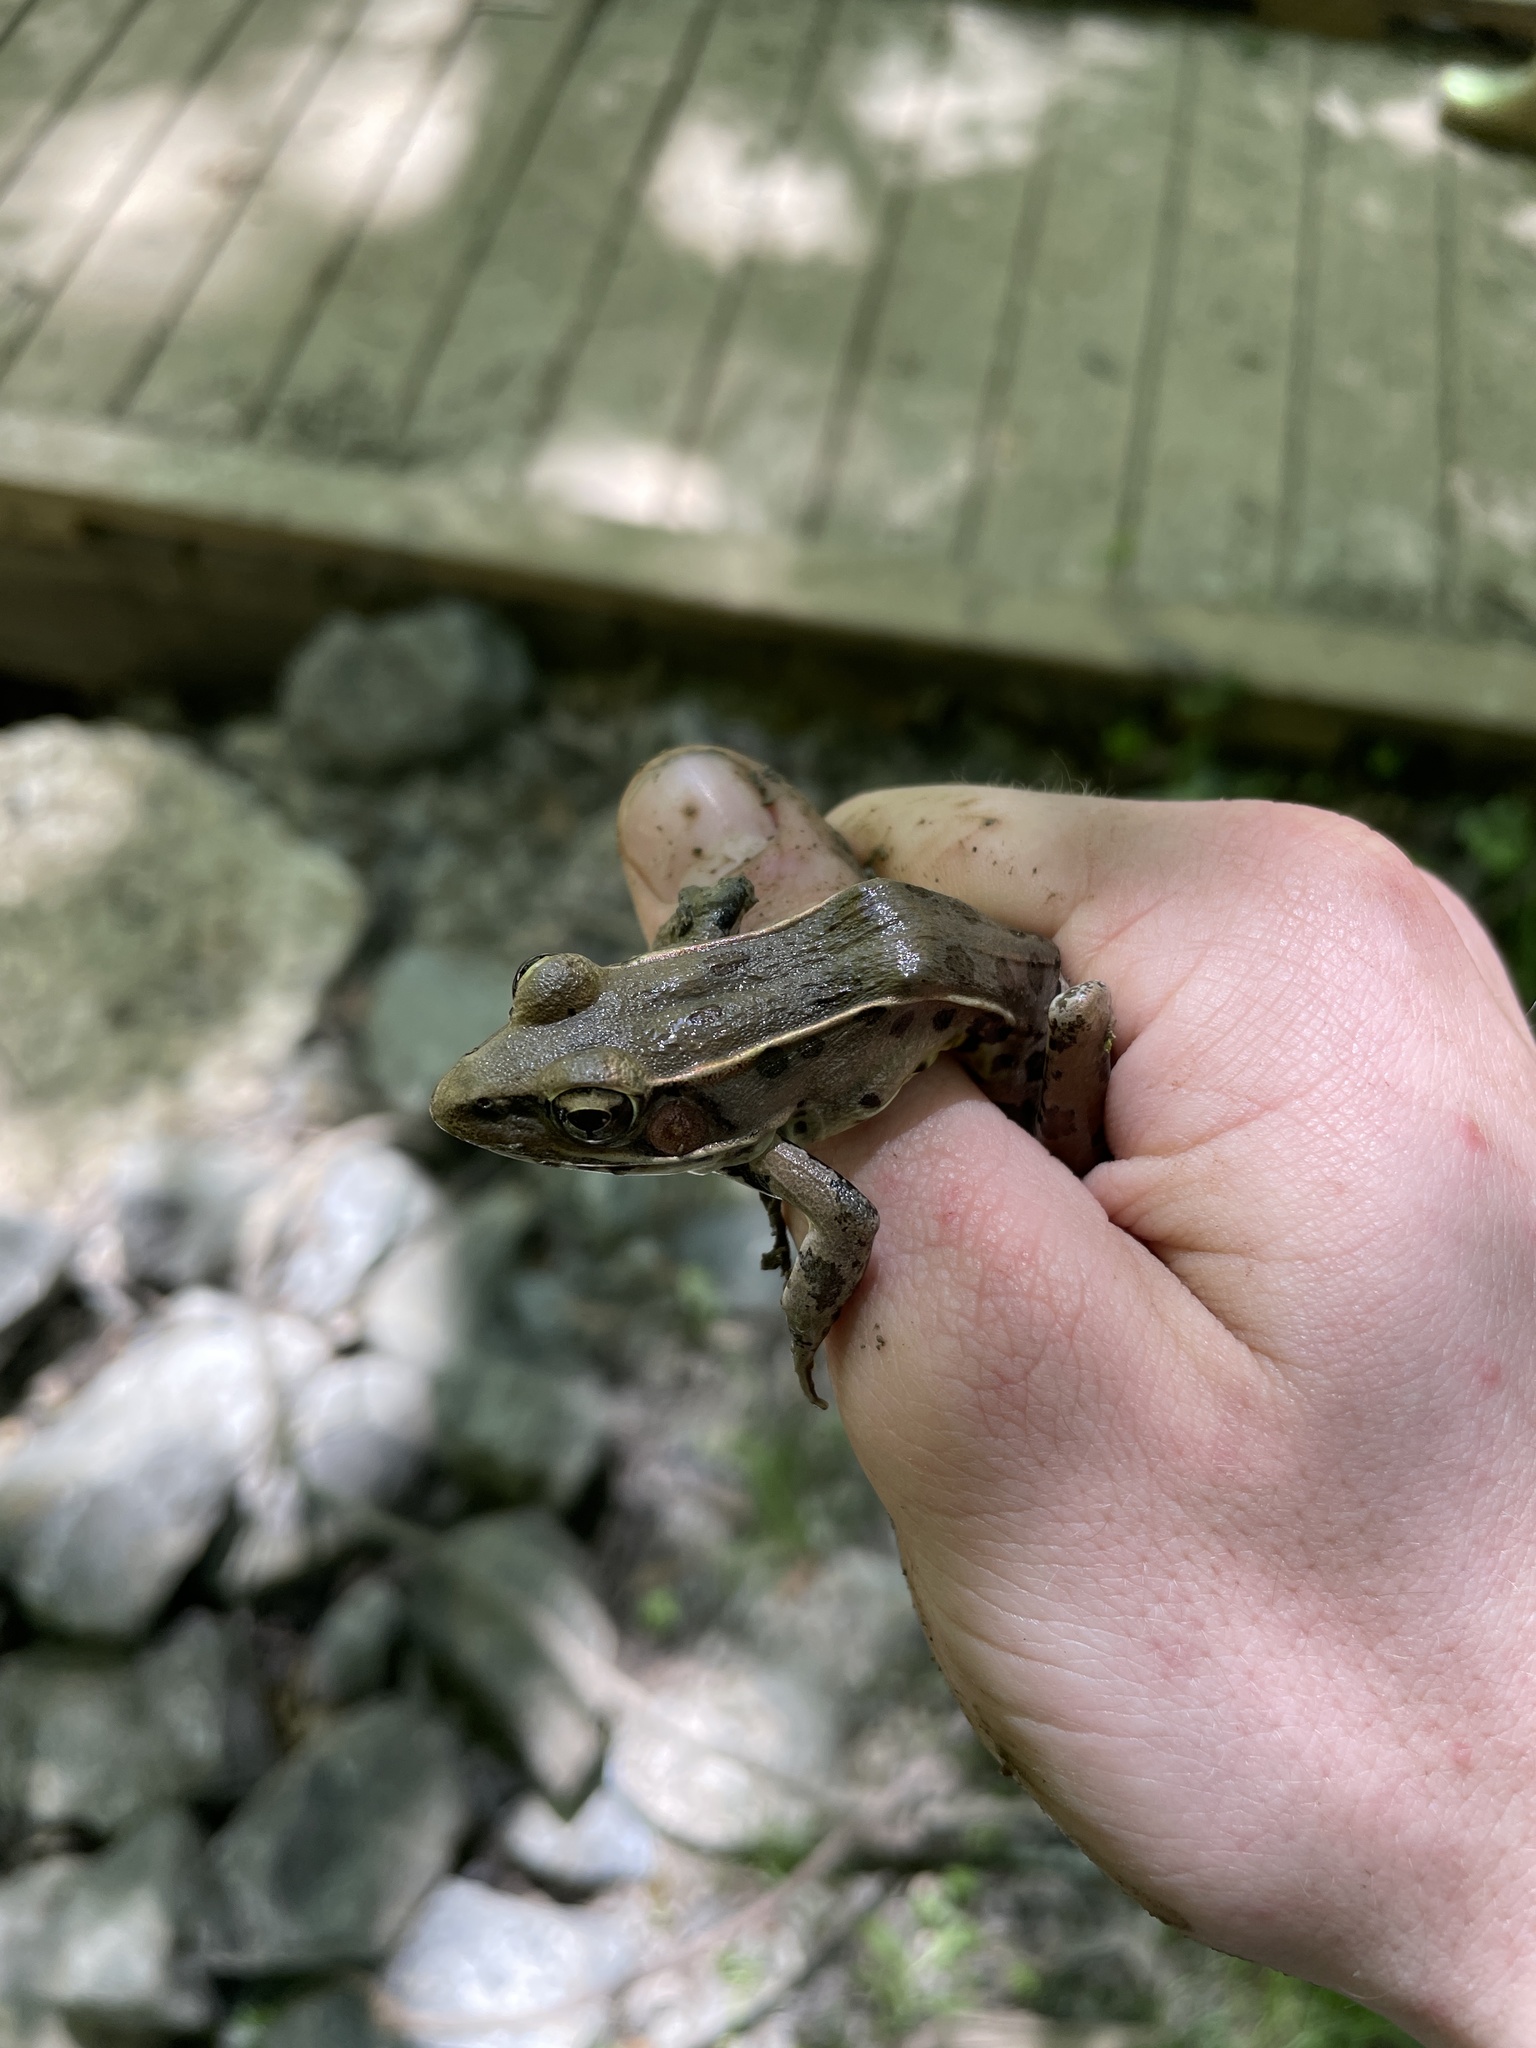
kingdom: Animalia
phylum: Chordata
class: Amphibia
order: Anura
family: Ranidae
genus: Lithobates
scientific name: Lithobates sphenocephalus
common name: Southern leopard frog
